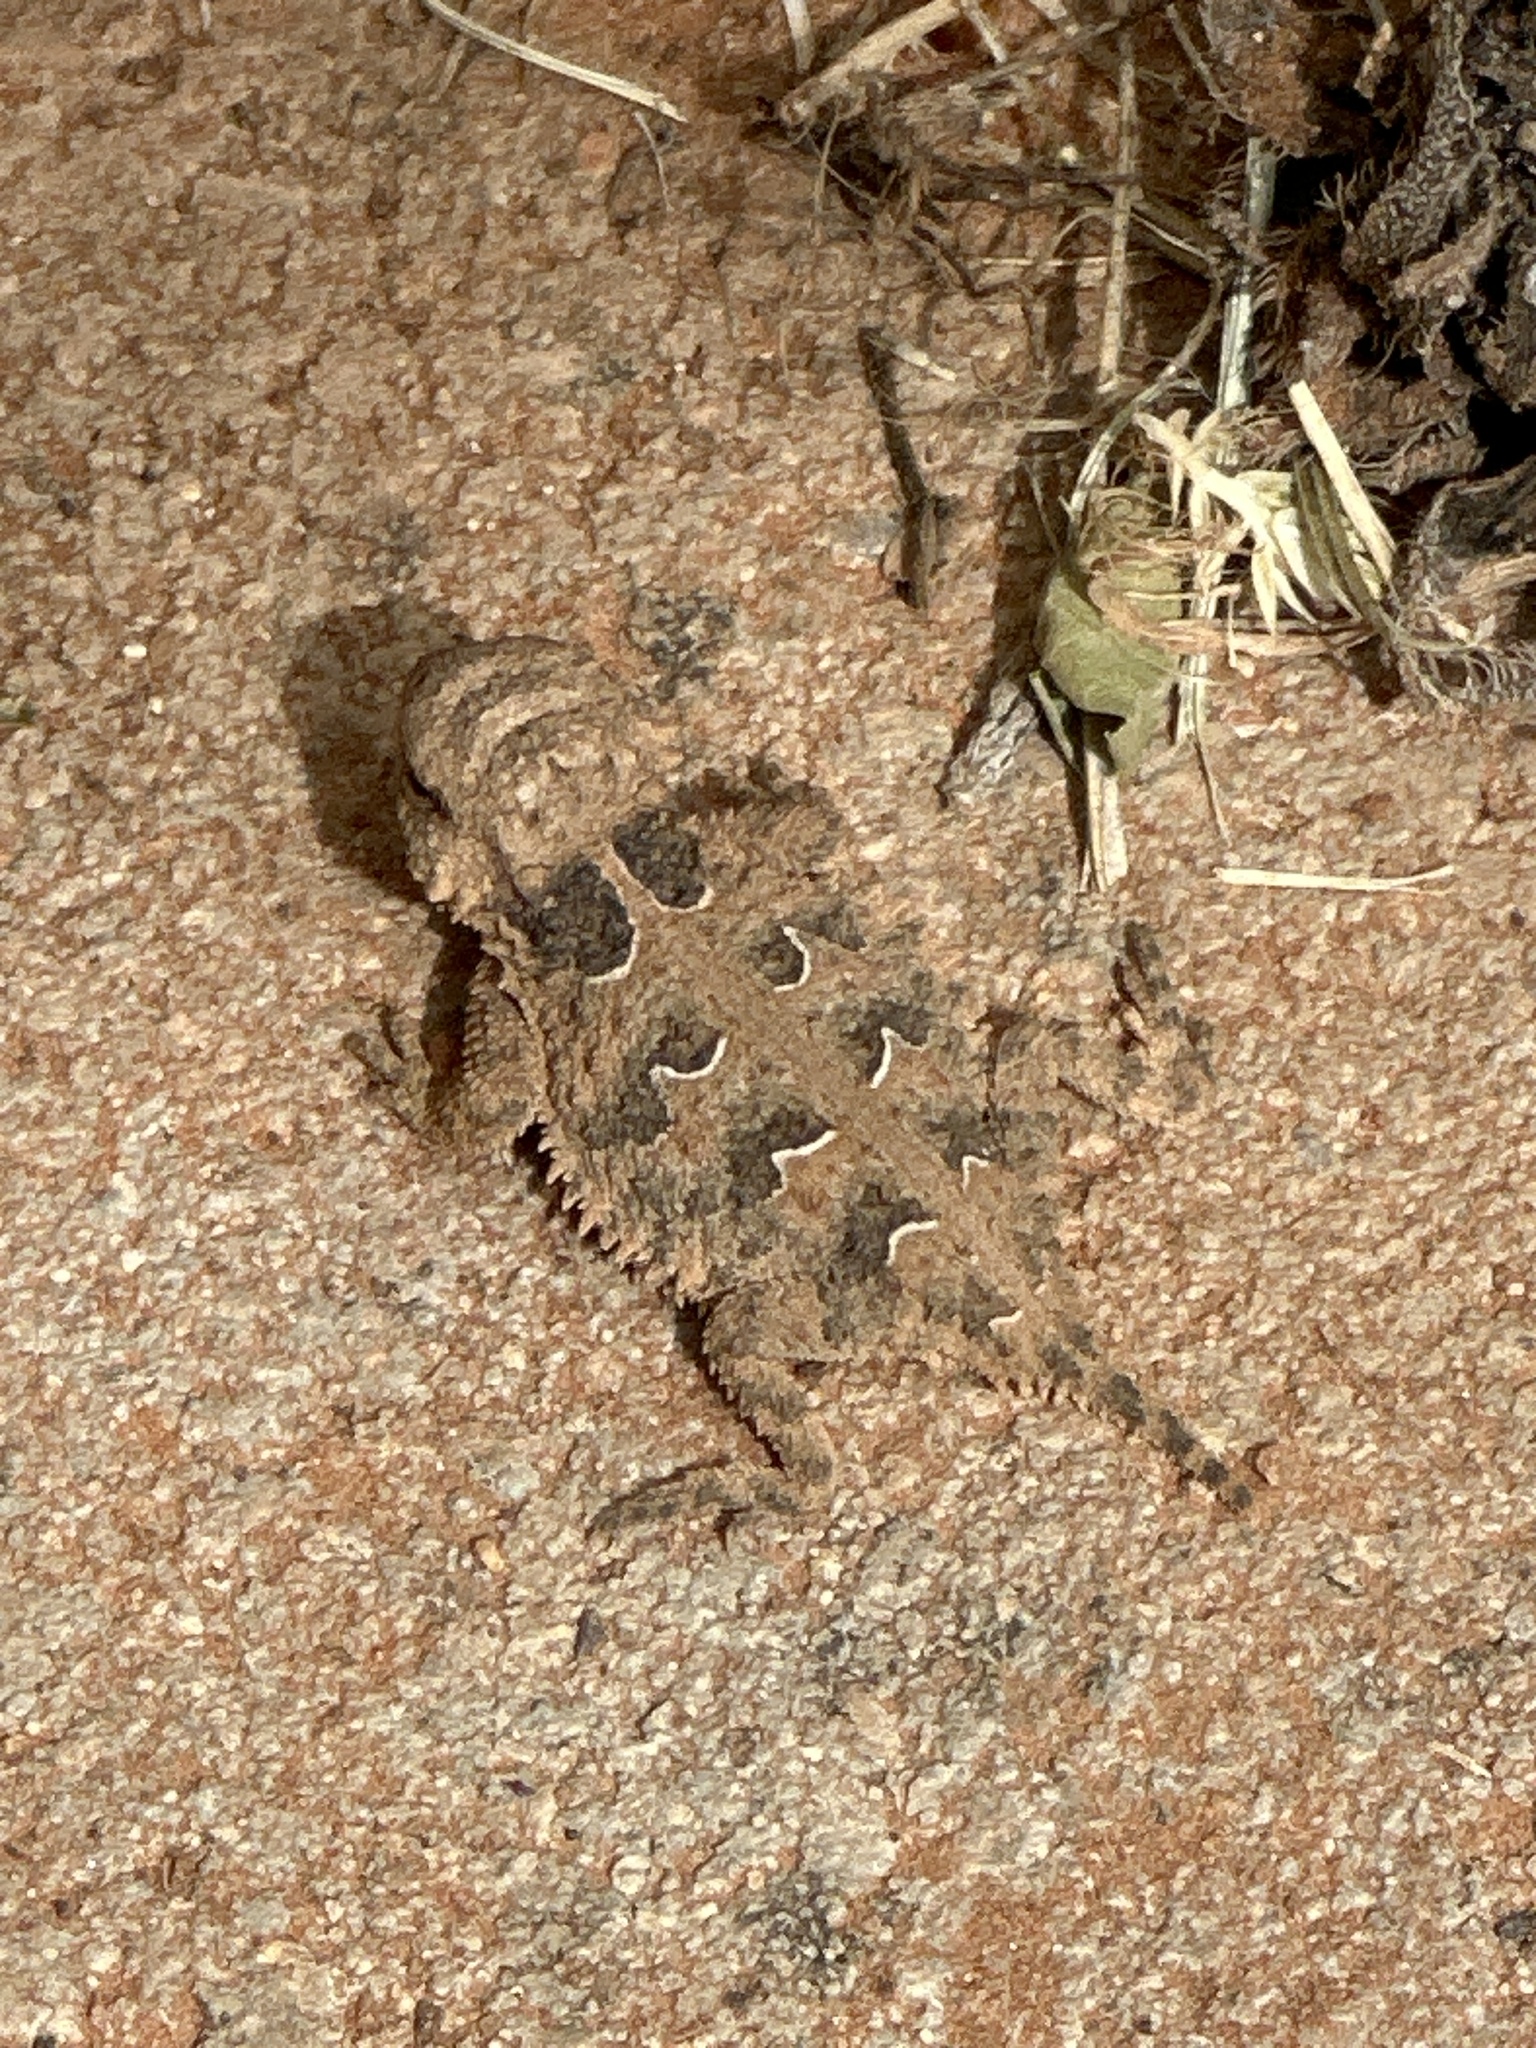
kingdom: Animalia
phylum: Chordata
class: Squamata
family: Phrynosomatidae
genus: Phrynosoma
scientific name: Phrynosoma cornutum
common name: Texas horned lizard
